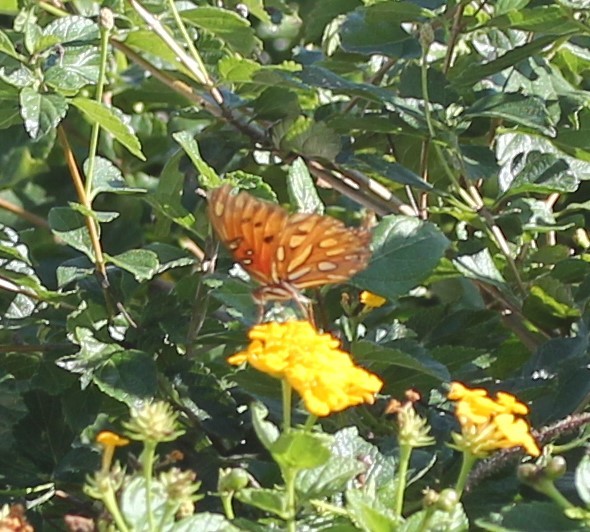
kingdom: Animalia
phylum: Arthropoda
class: Insecta
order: Lepidoptera
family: Nymphalidae
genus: Dione
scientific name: Dione vanillae
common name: Gulf fritillary
